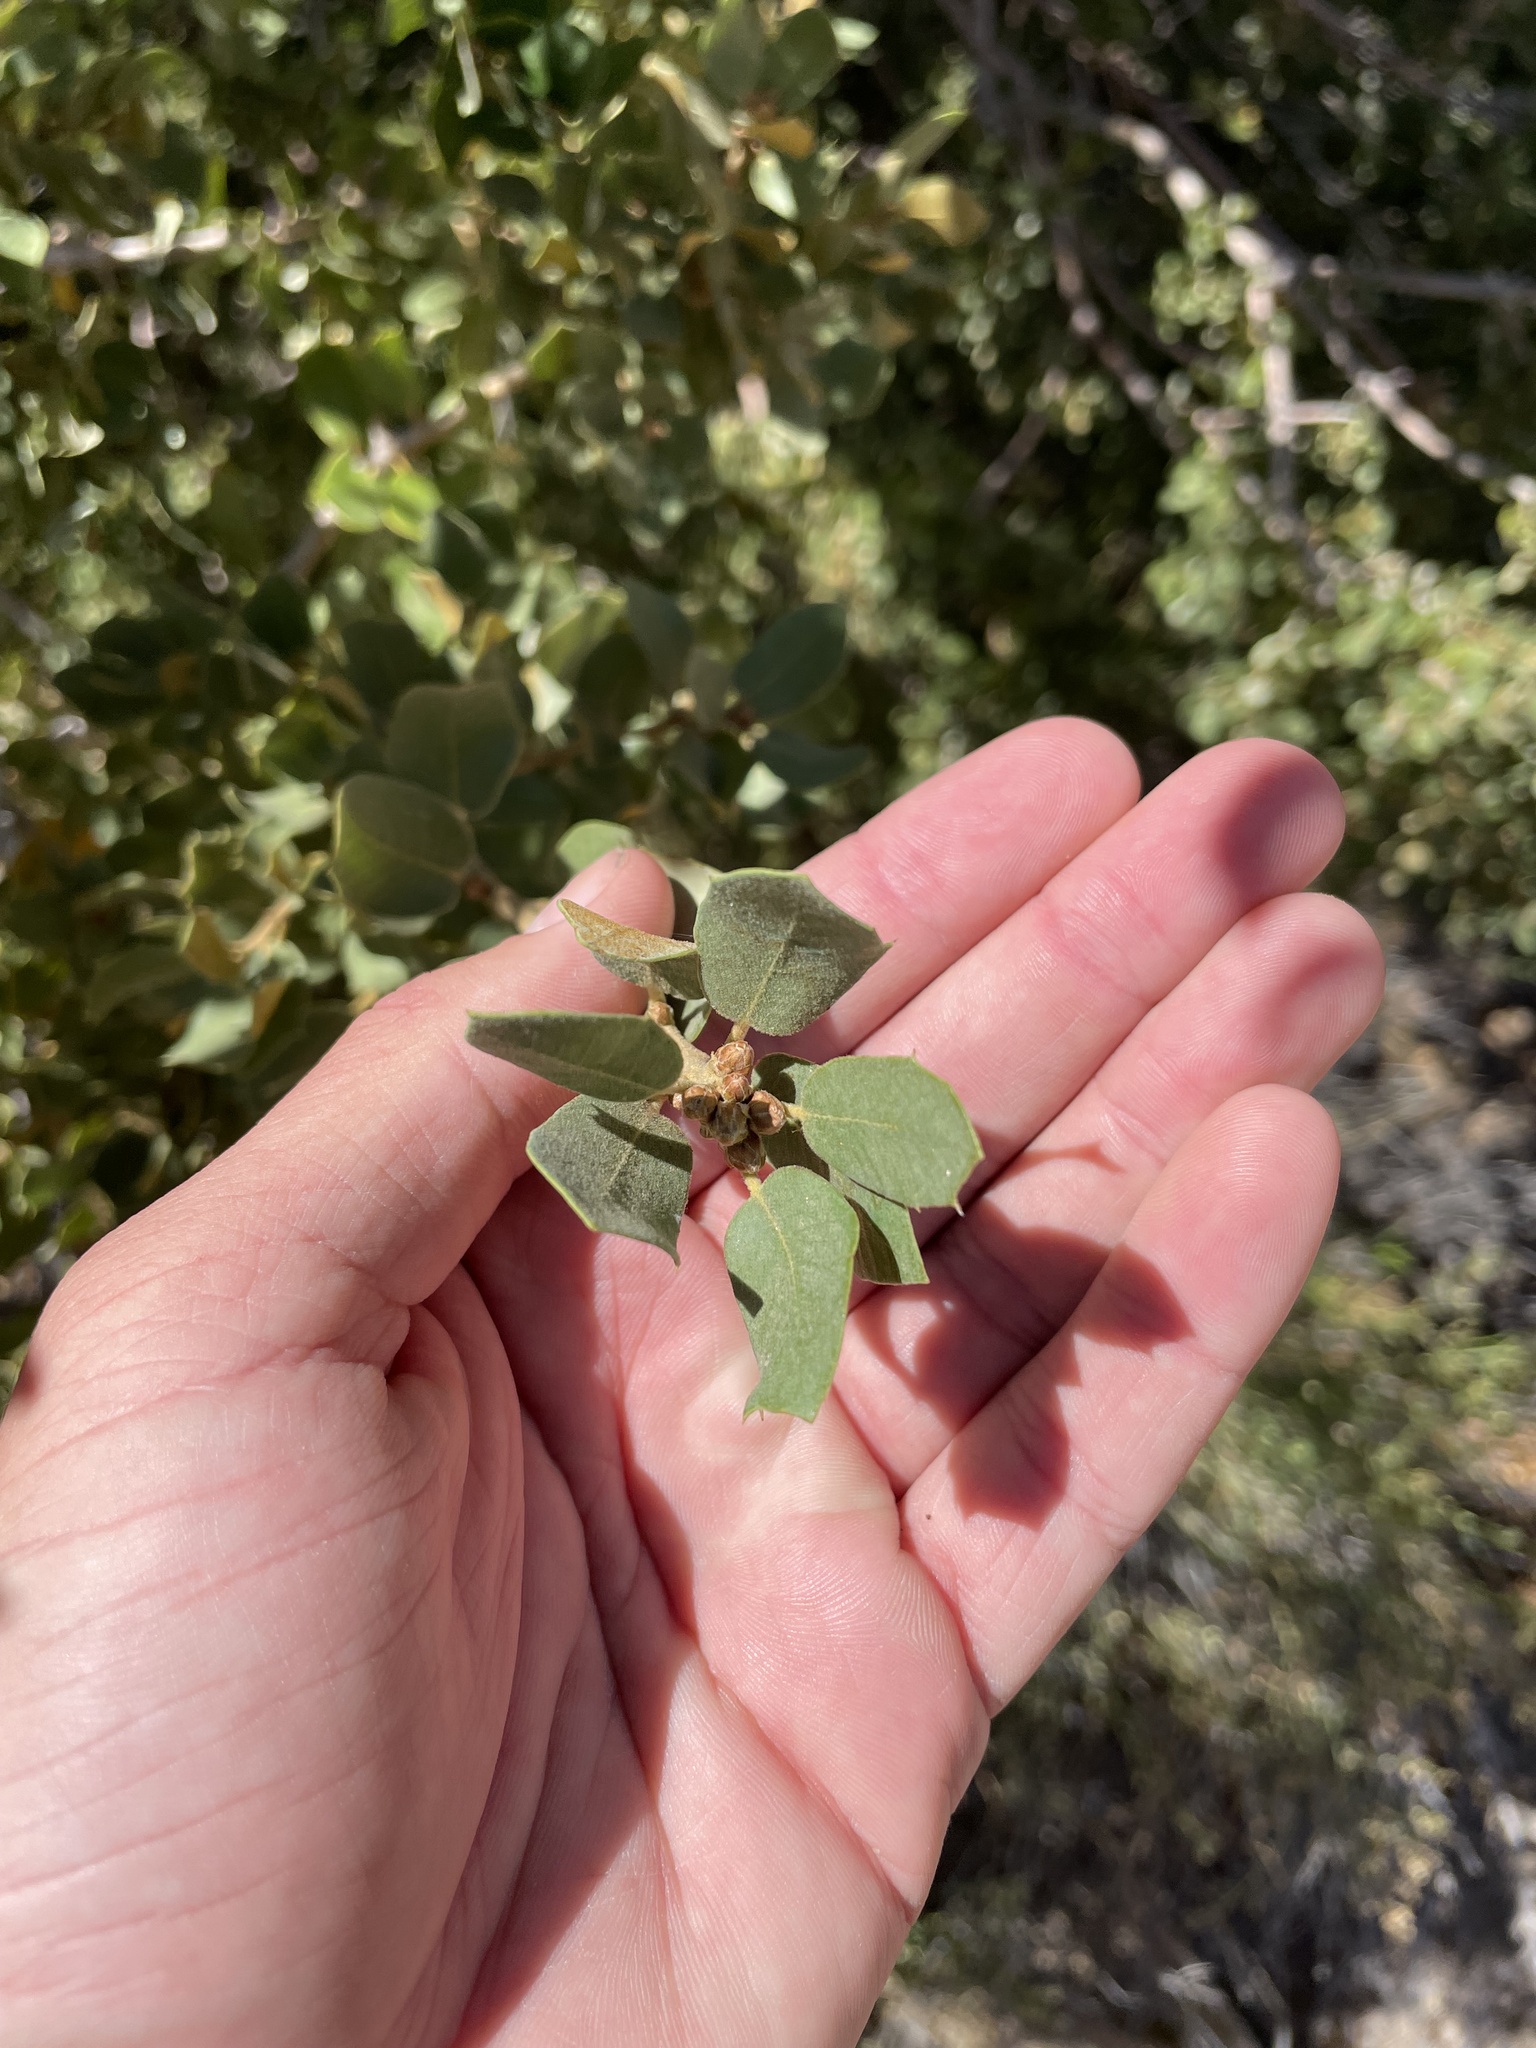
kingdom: Plantae
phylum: Tracheophyta
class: Magnoliopsida
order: Fagales
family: Fagaceae
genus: Quercus
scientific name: Quercus chrysolepis
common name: Canyon live oak
